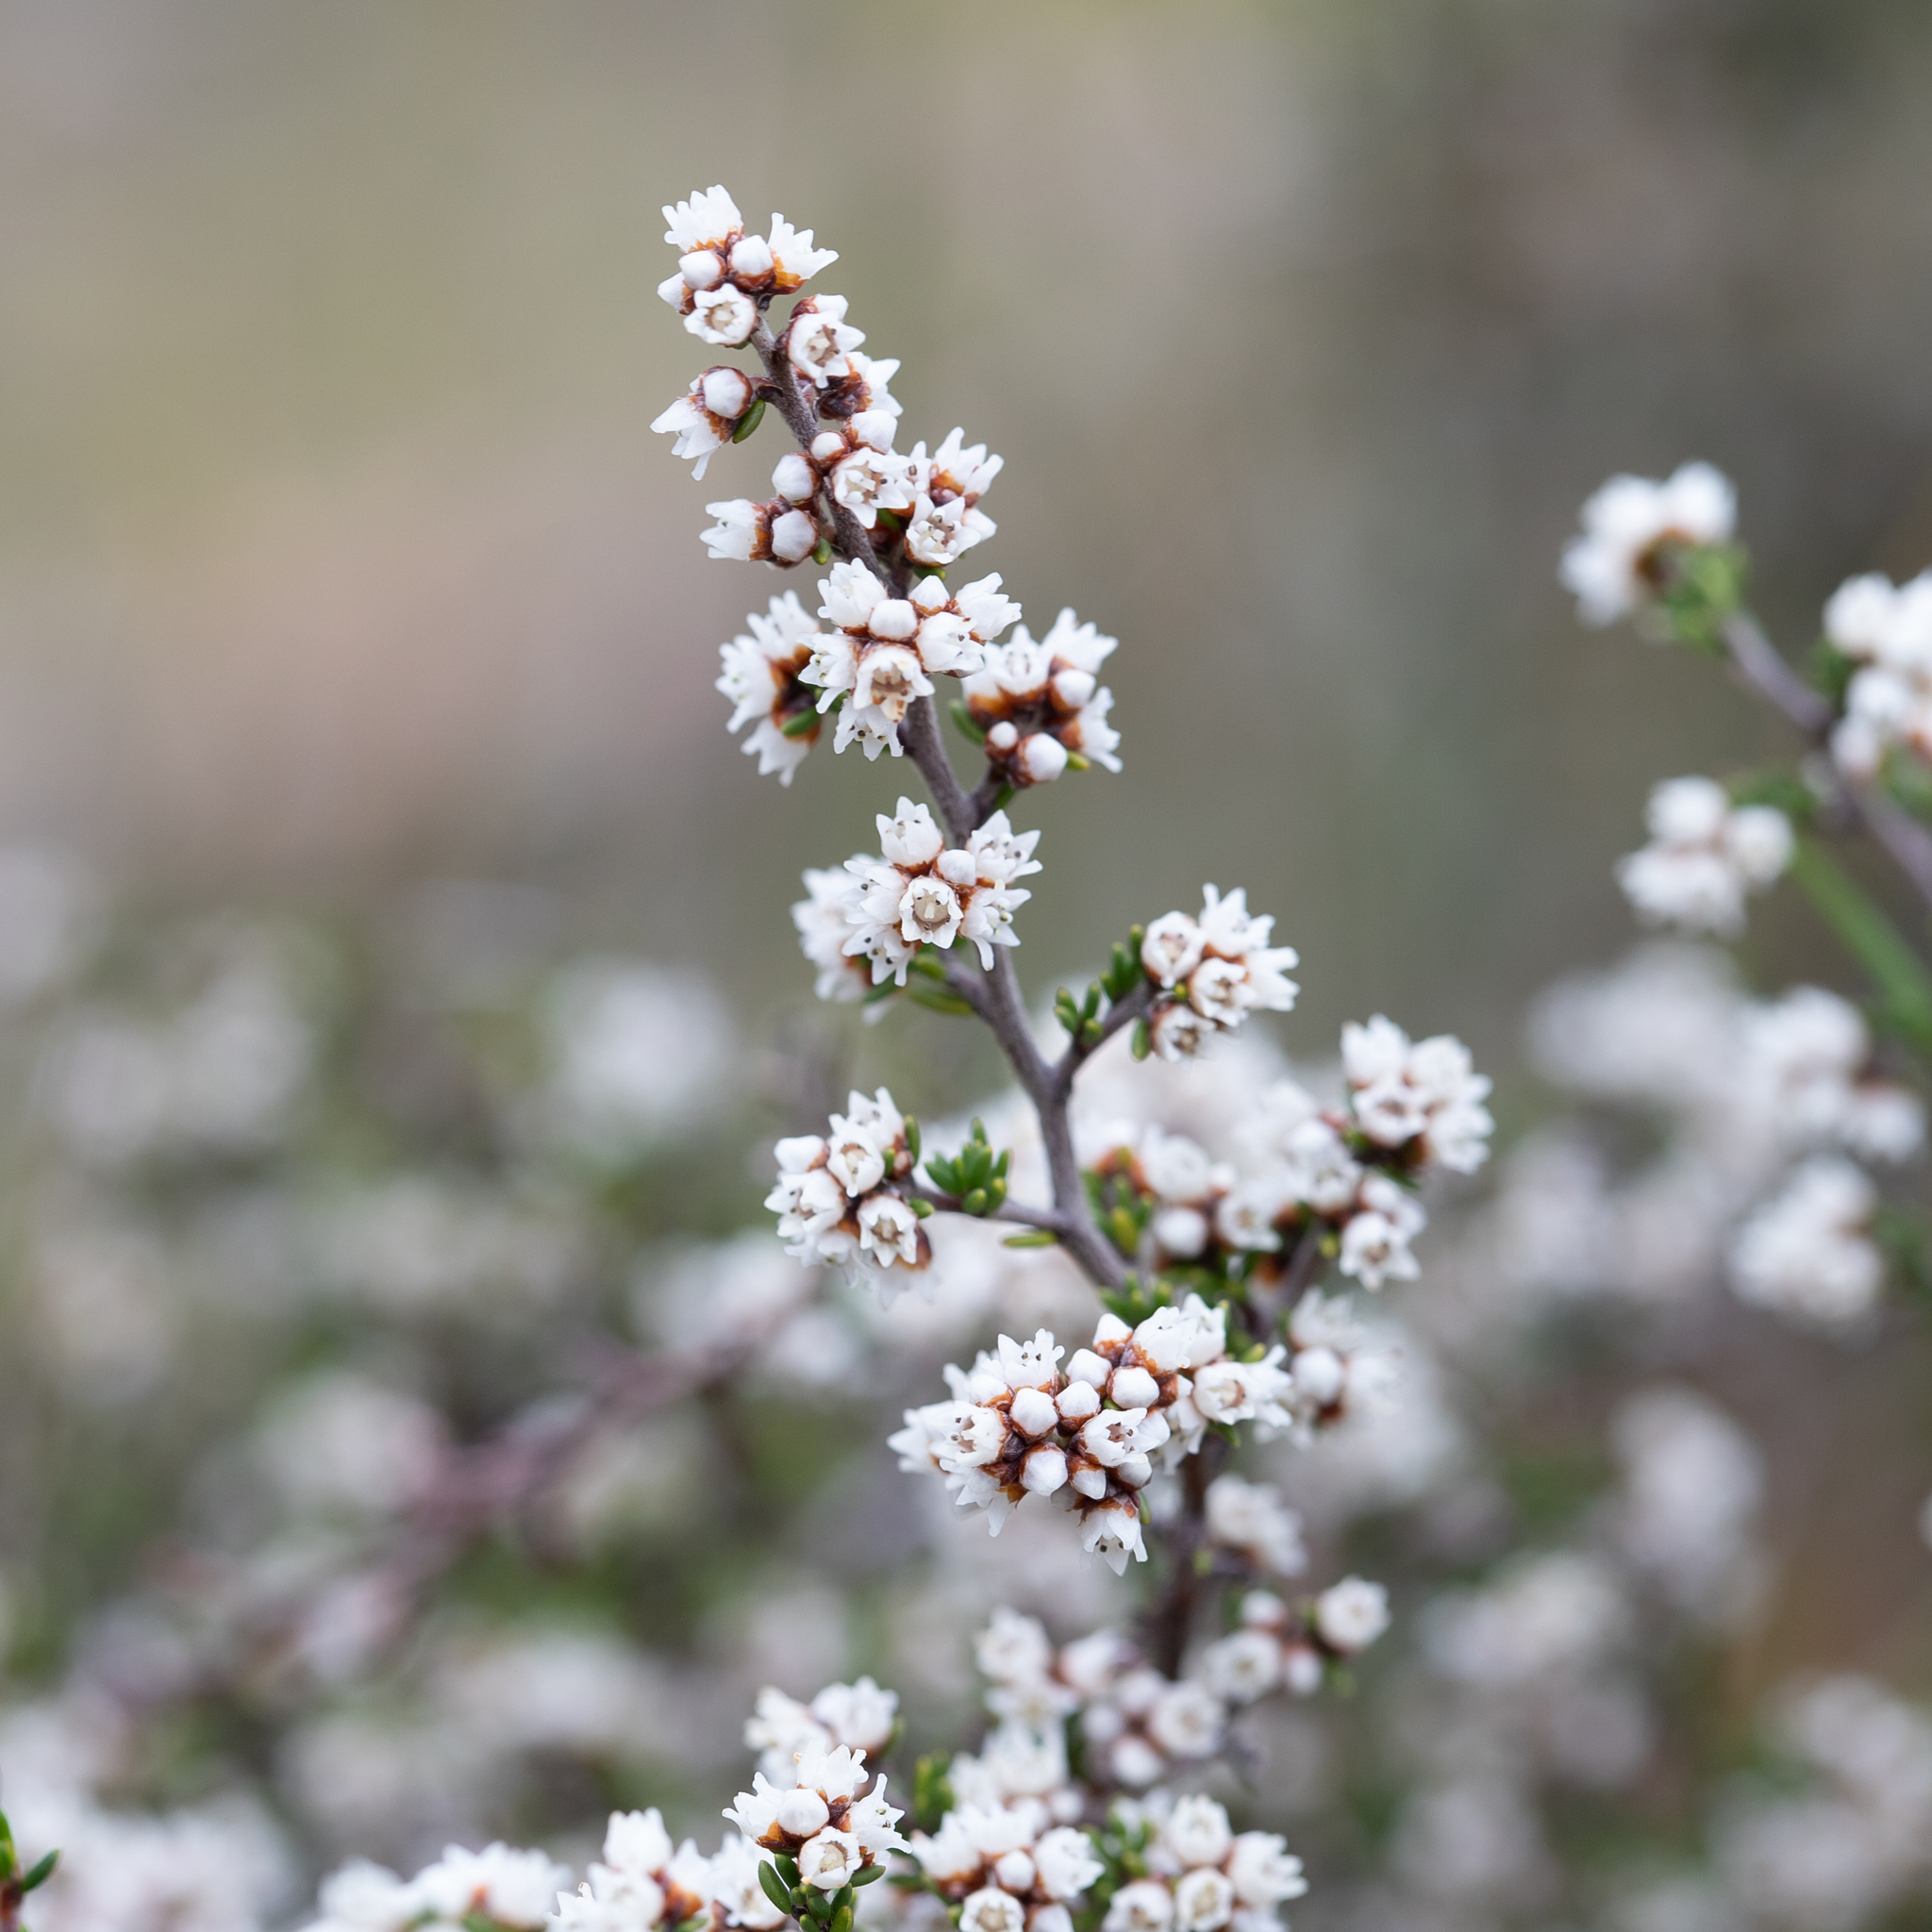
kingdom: Plantae
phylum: Tracheophyta
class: Magnoliopsida
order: Rosales
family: Rhamnaceae
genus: Cryptandra
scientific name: Cryptandra tomentosa
